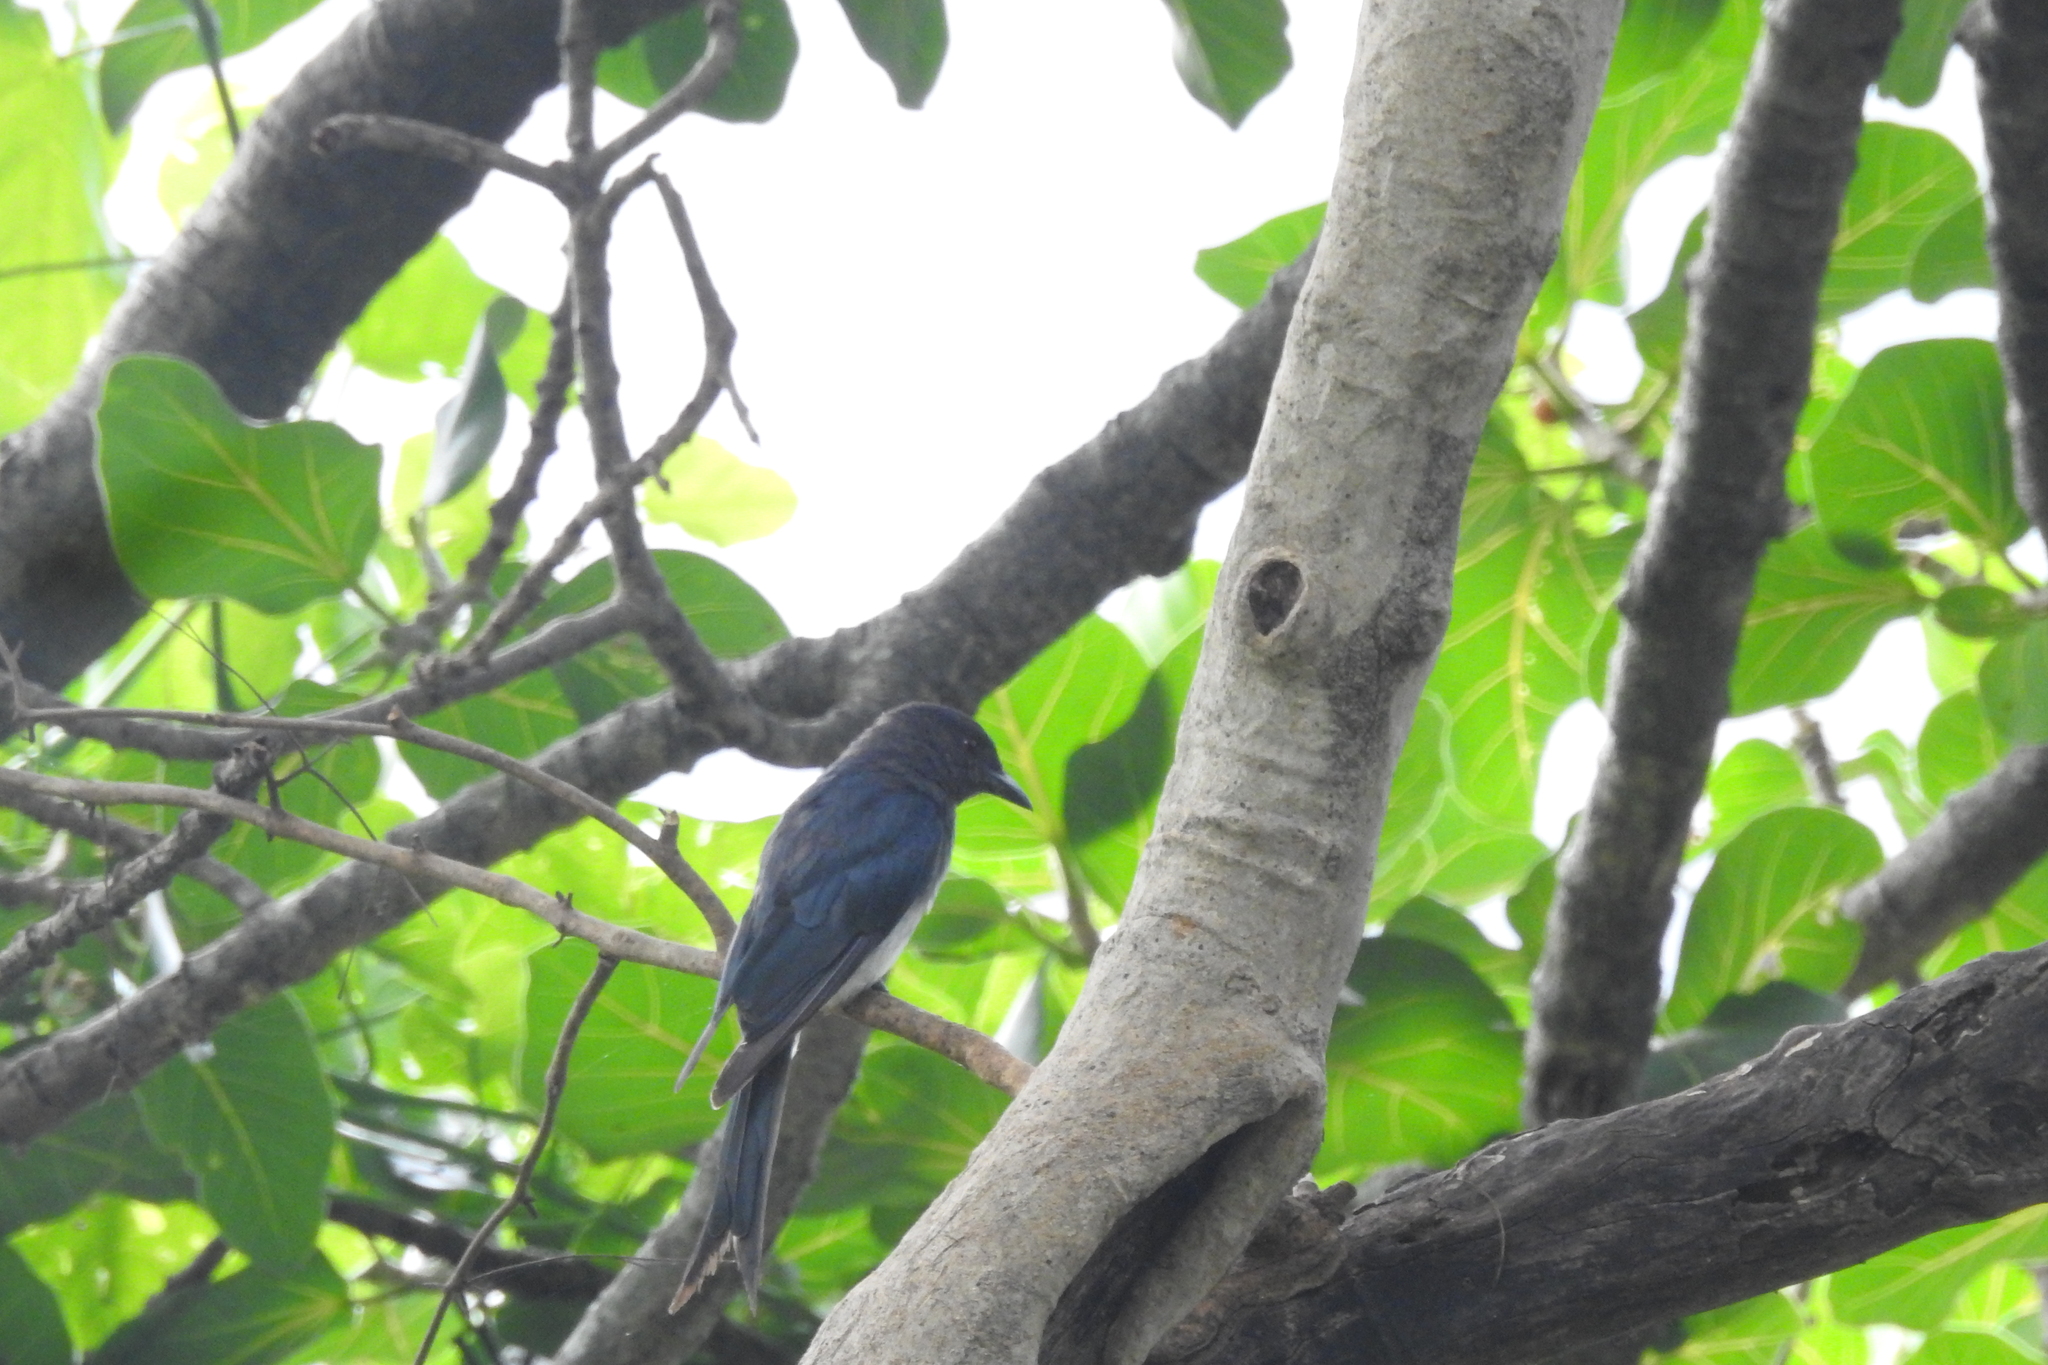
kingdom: Animalia
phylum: Chordata
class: Aves
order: Passeriformes
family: Dicruridae
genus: Dicrurus
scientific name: Dicrurus caerulescens
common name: White-bellied drongo
